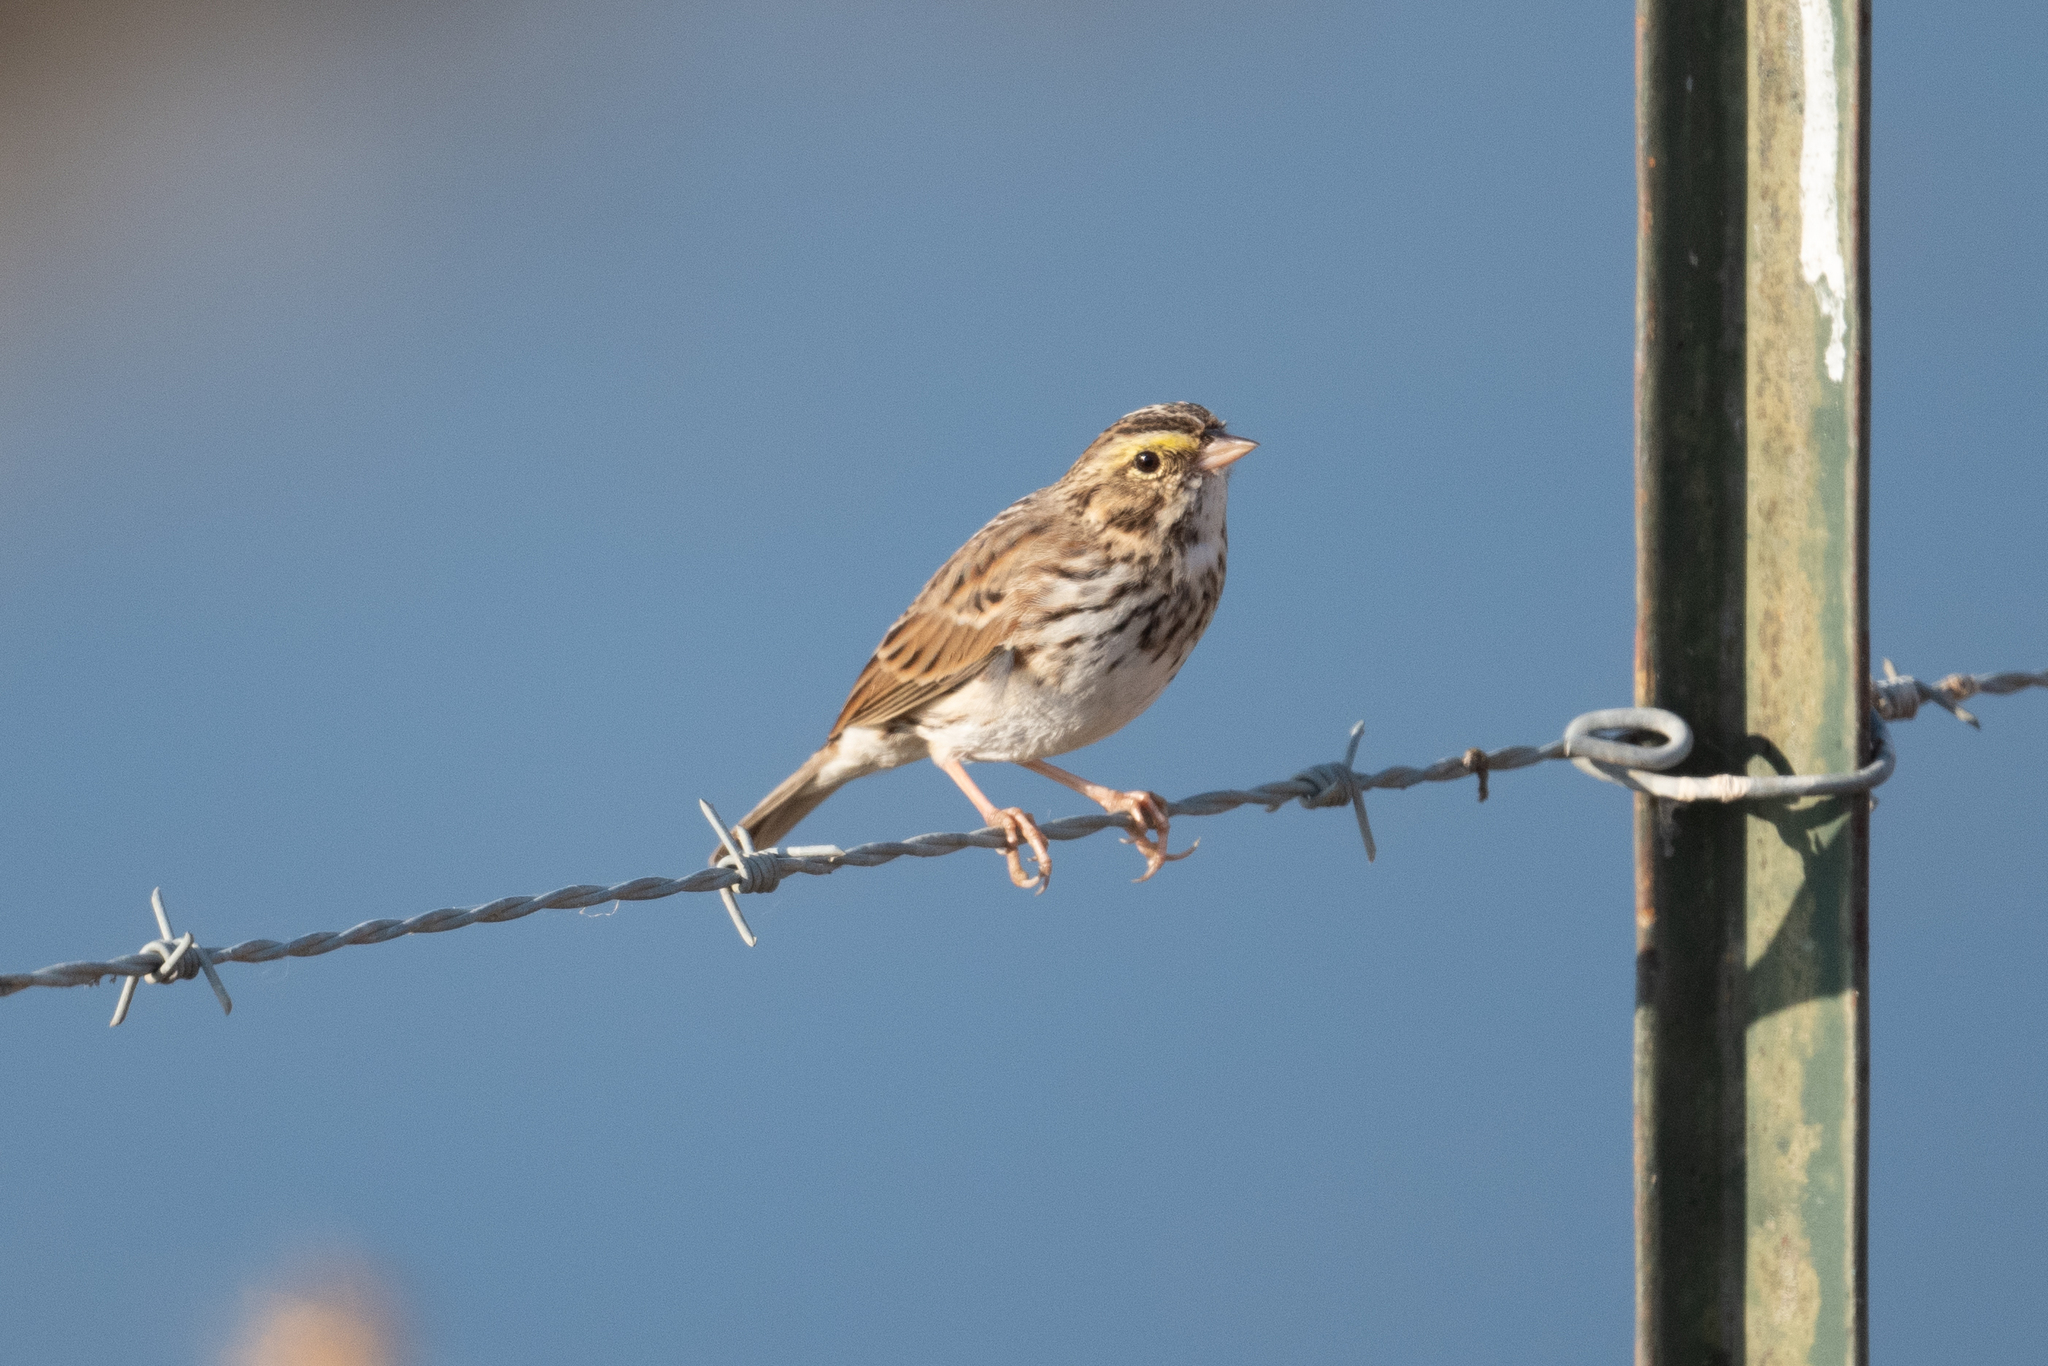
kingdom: Animalia
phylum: Chordata
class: Aves
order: Passeriformes
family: Passerellidae
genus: Passerculus
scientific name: Passerculus sandwichensis
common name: Savannah sparrow
